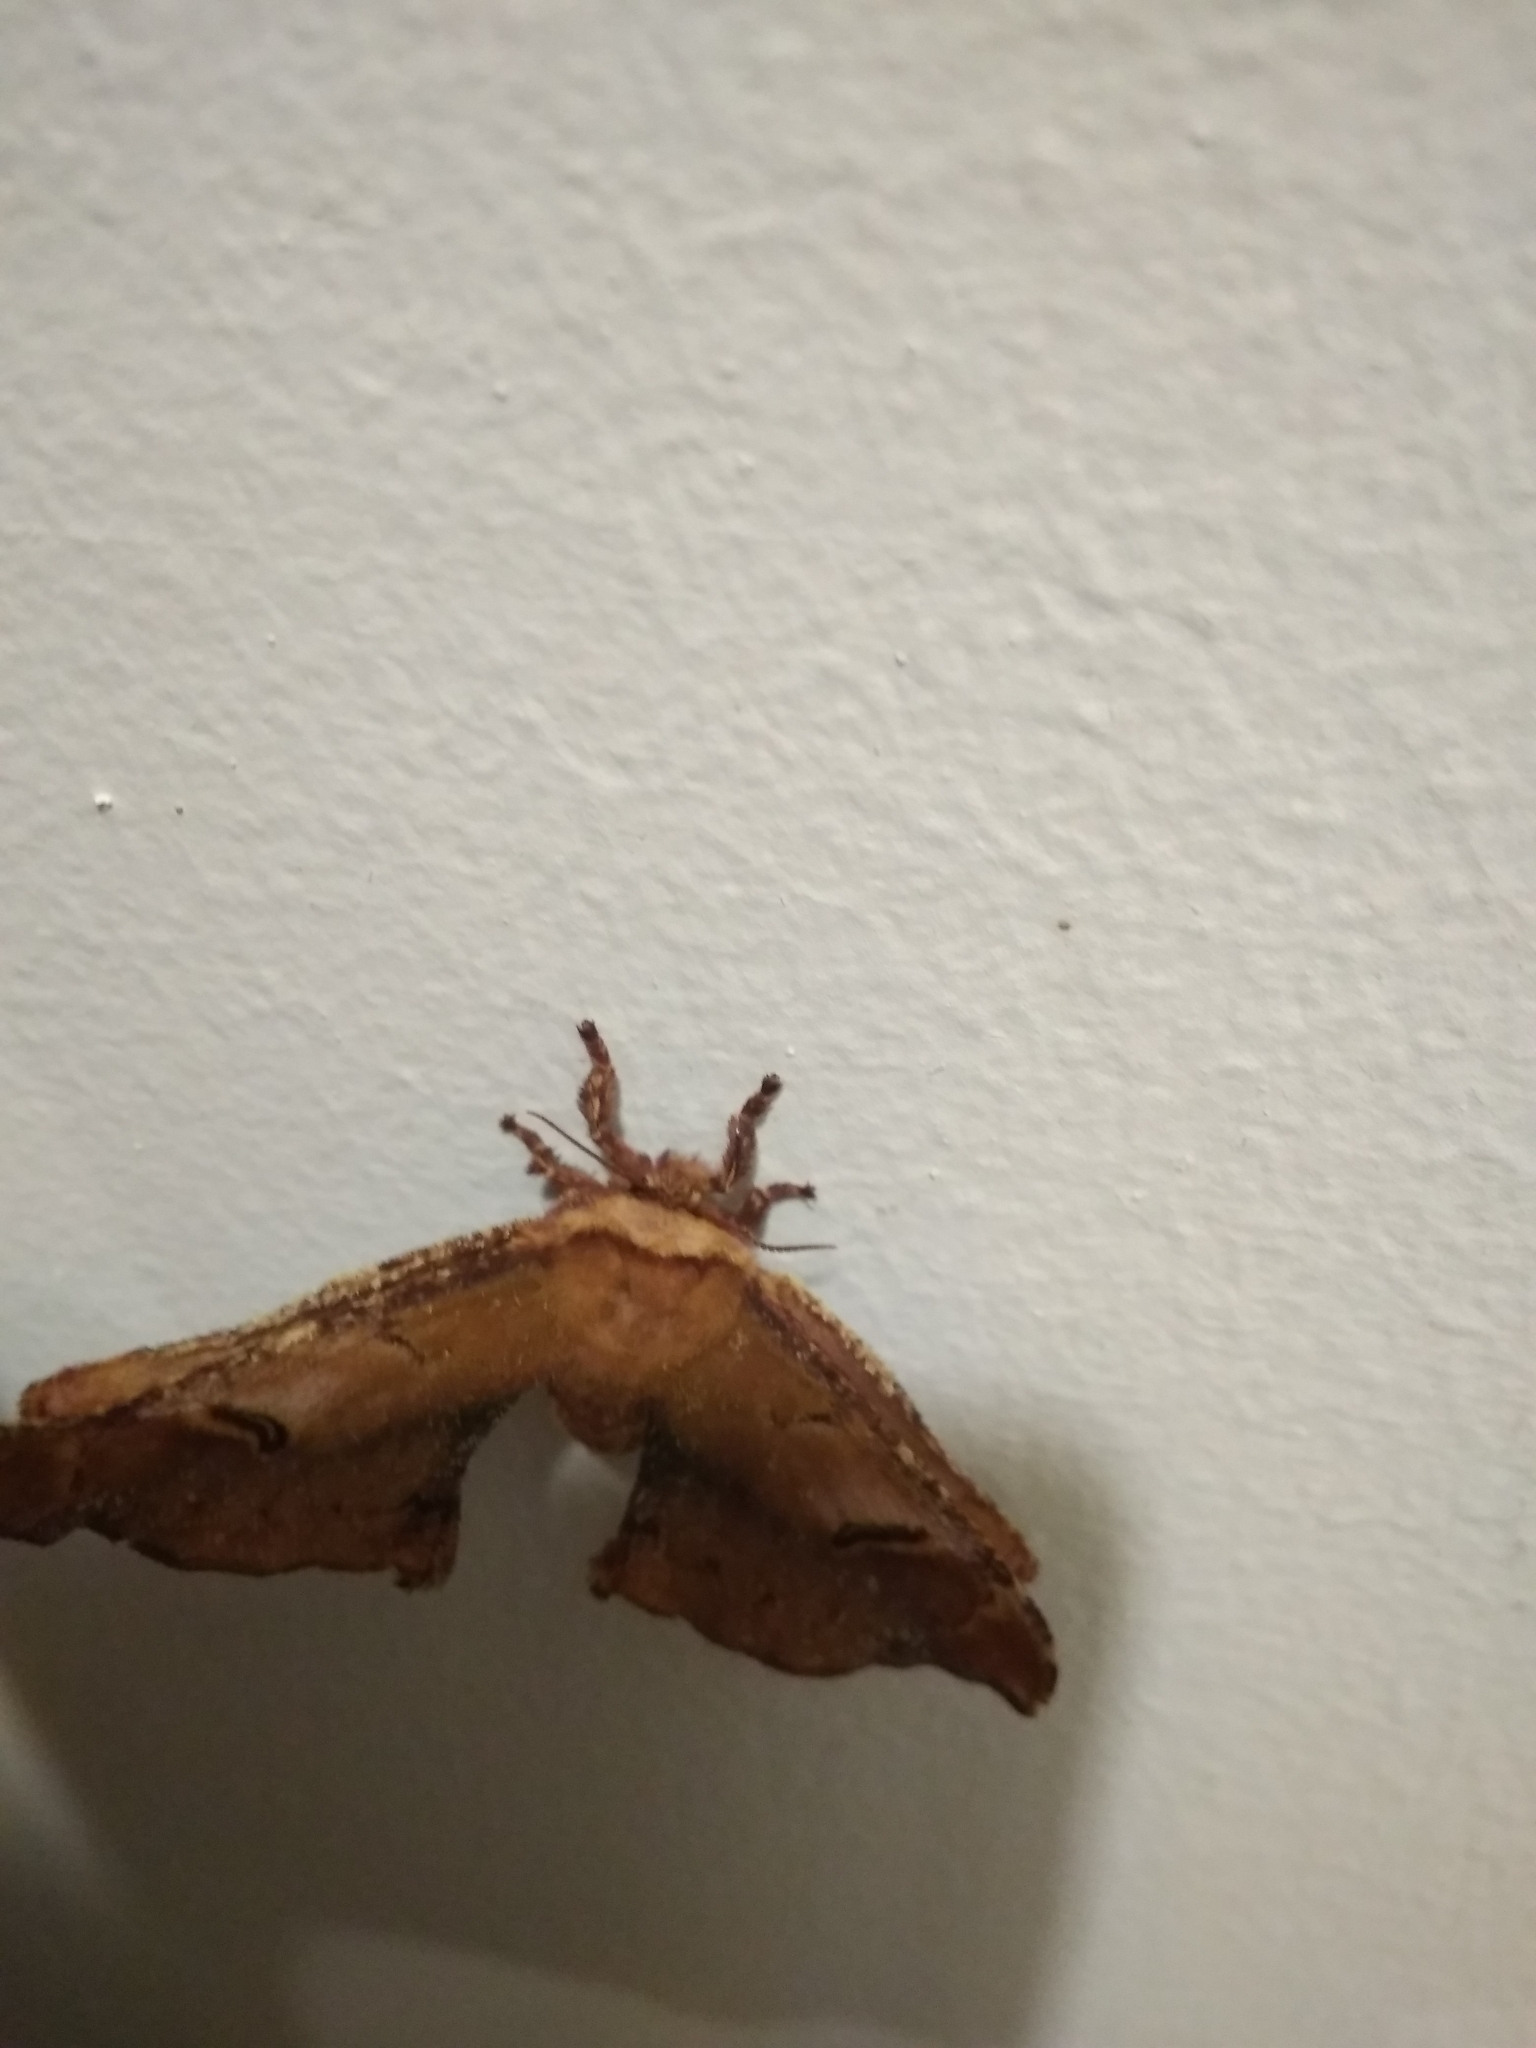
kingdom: Animalia
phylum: Arthropoda
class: Insecta
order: Lepidoptera
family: Saturniidae
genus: Goodia
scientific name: Goodia
